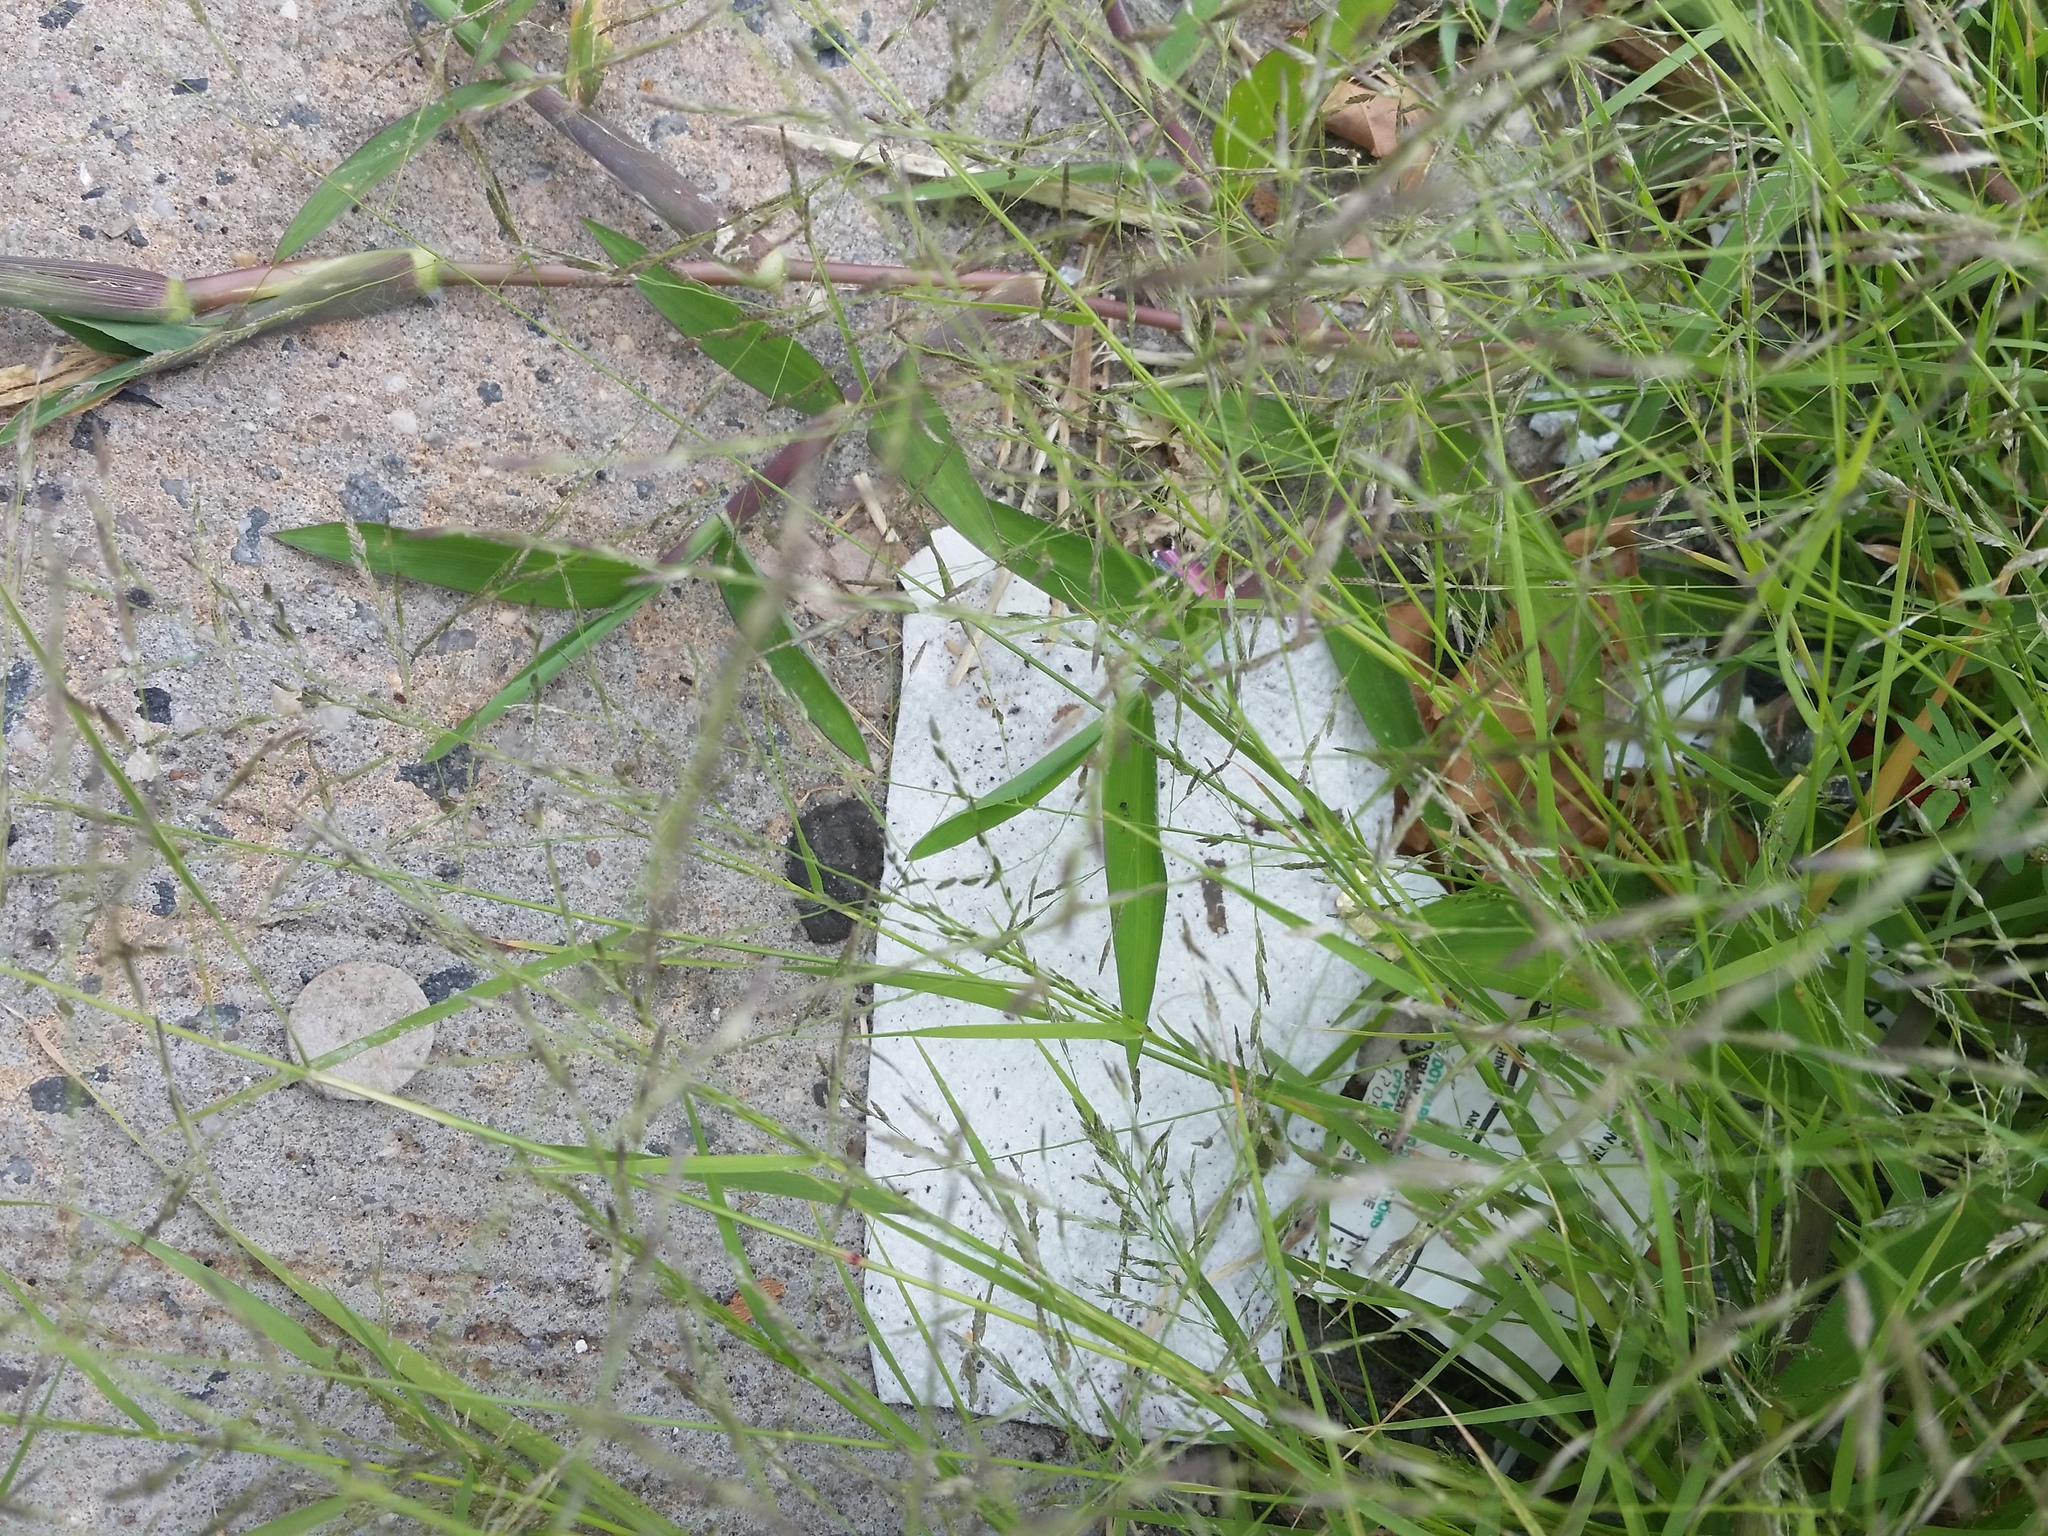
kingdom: Plantae
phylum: Tracheophyta
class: Liliopsida
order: Poales
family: Poaceae
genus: Eragrostis
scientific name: Eragrostis pectinacea
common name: Tufted lovegrass
